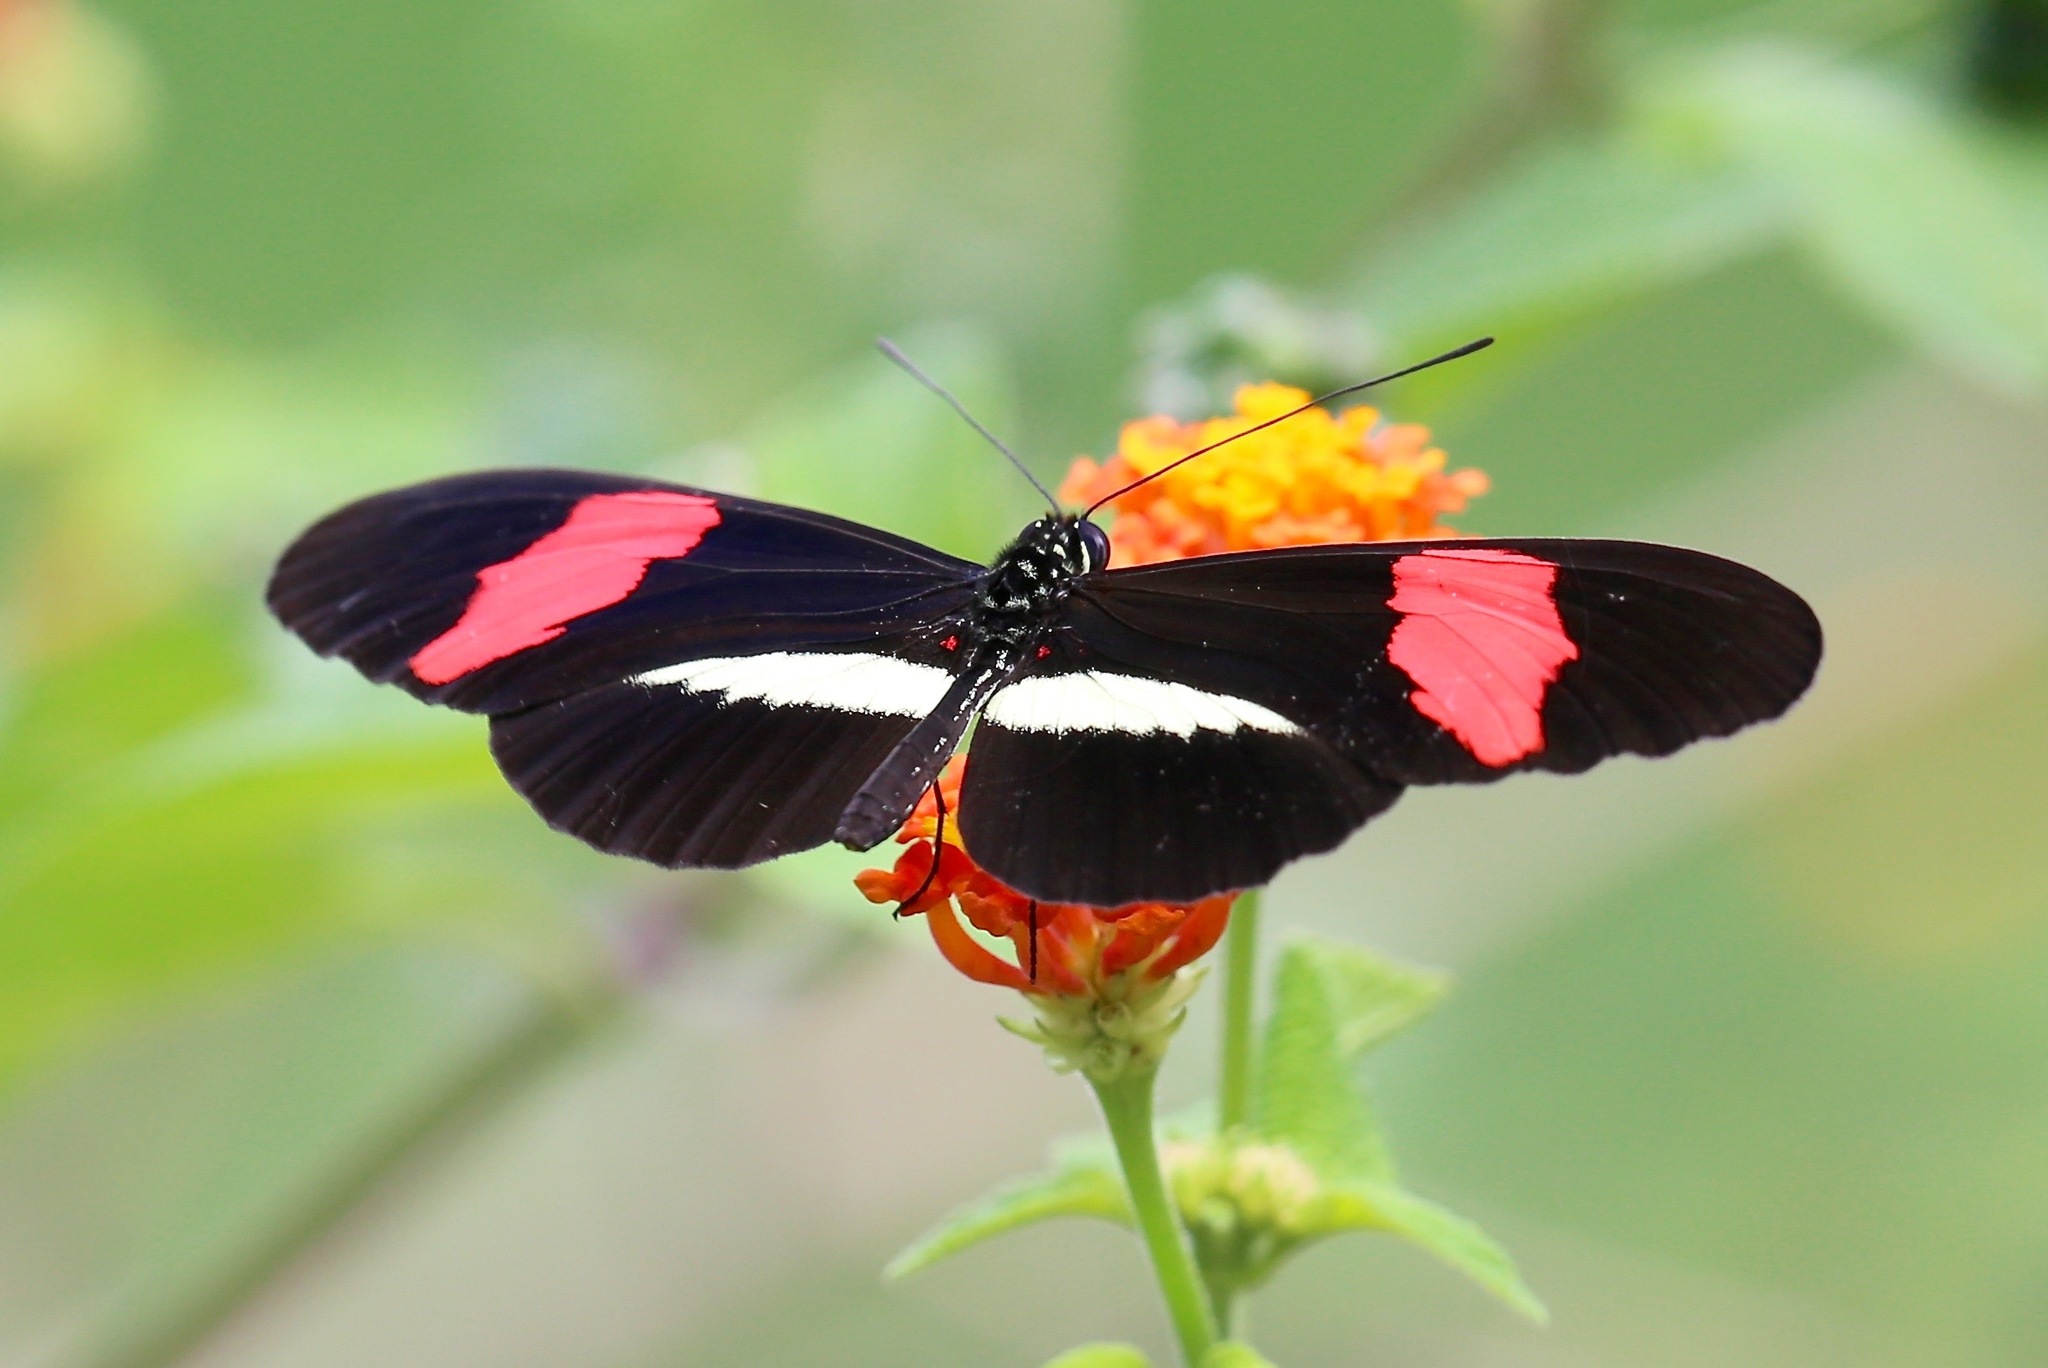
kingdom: Animalia
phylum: Arthropoda
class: Insecta
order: Lepidoptera
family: Nymphalidae
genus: Heliconius
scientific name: Heliconius erato
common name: Common patch longwing
